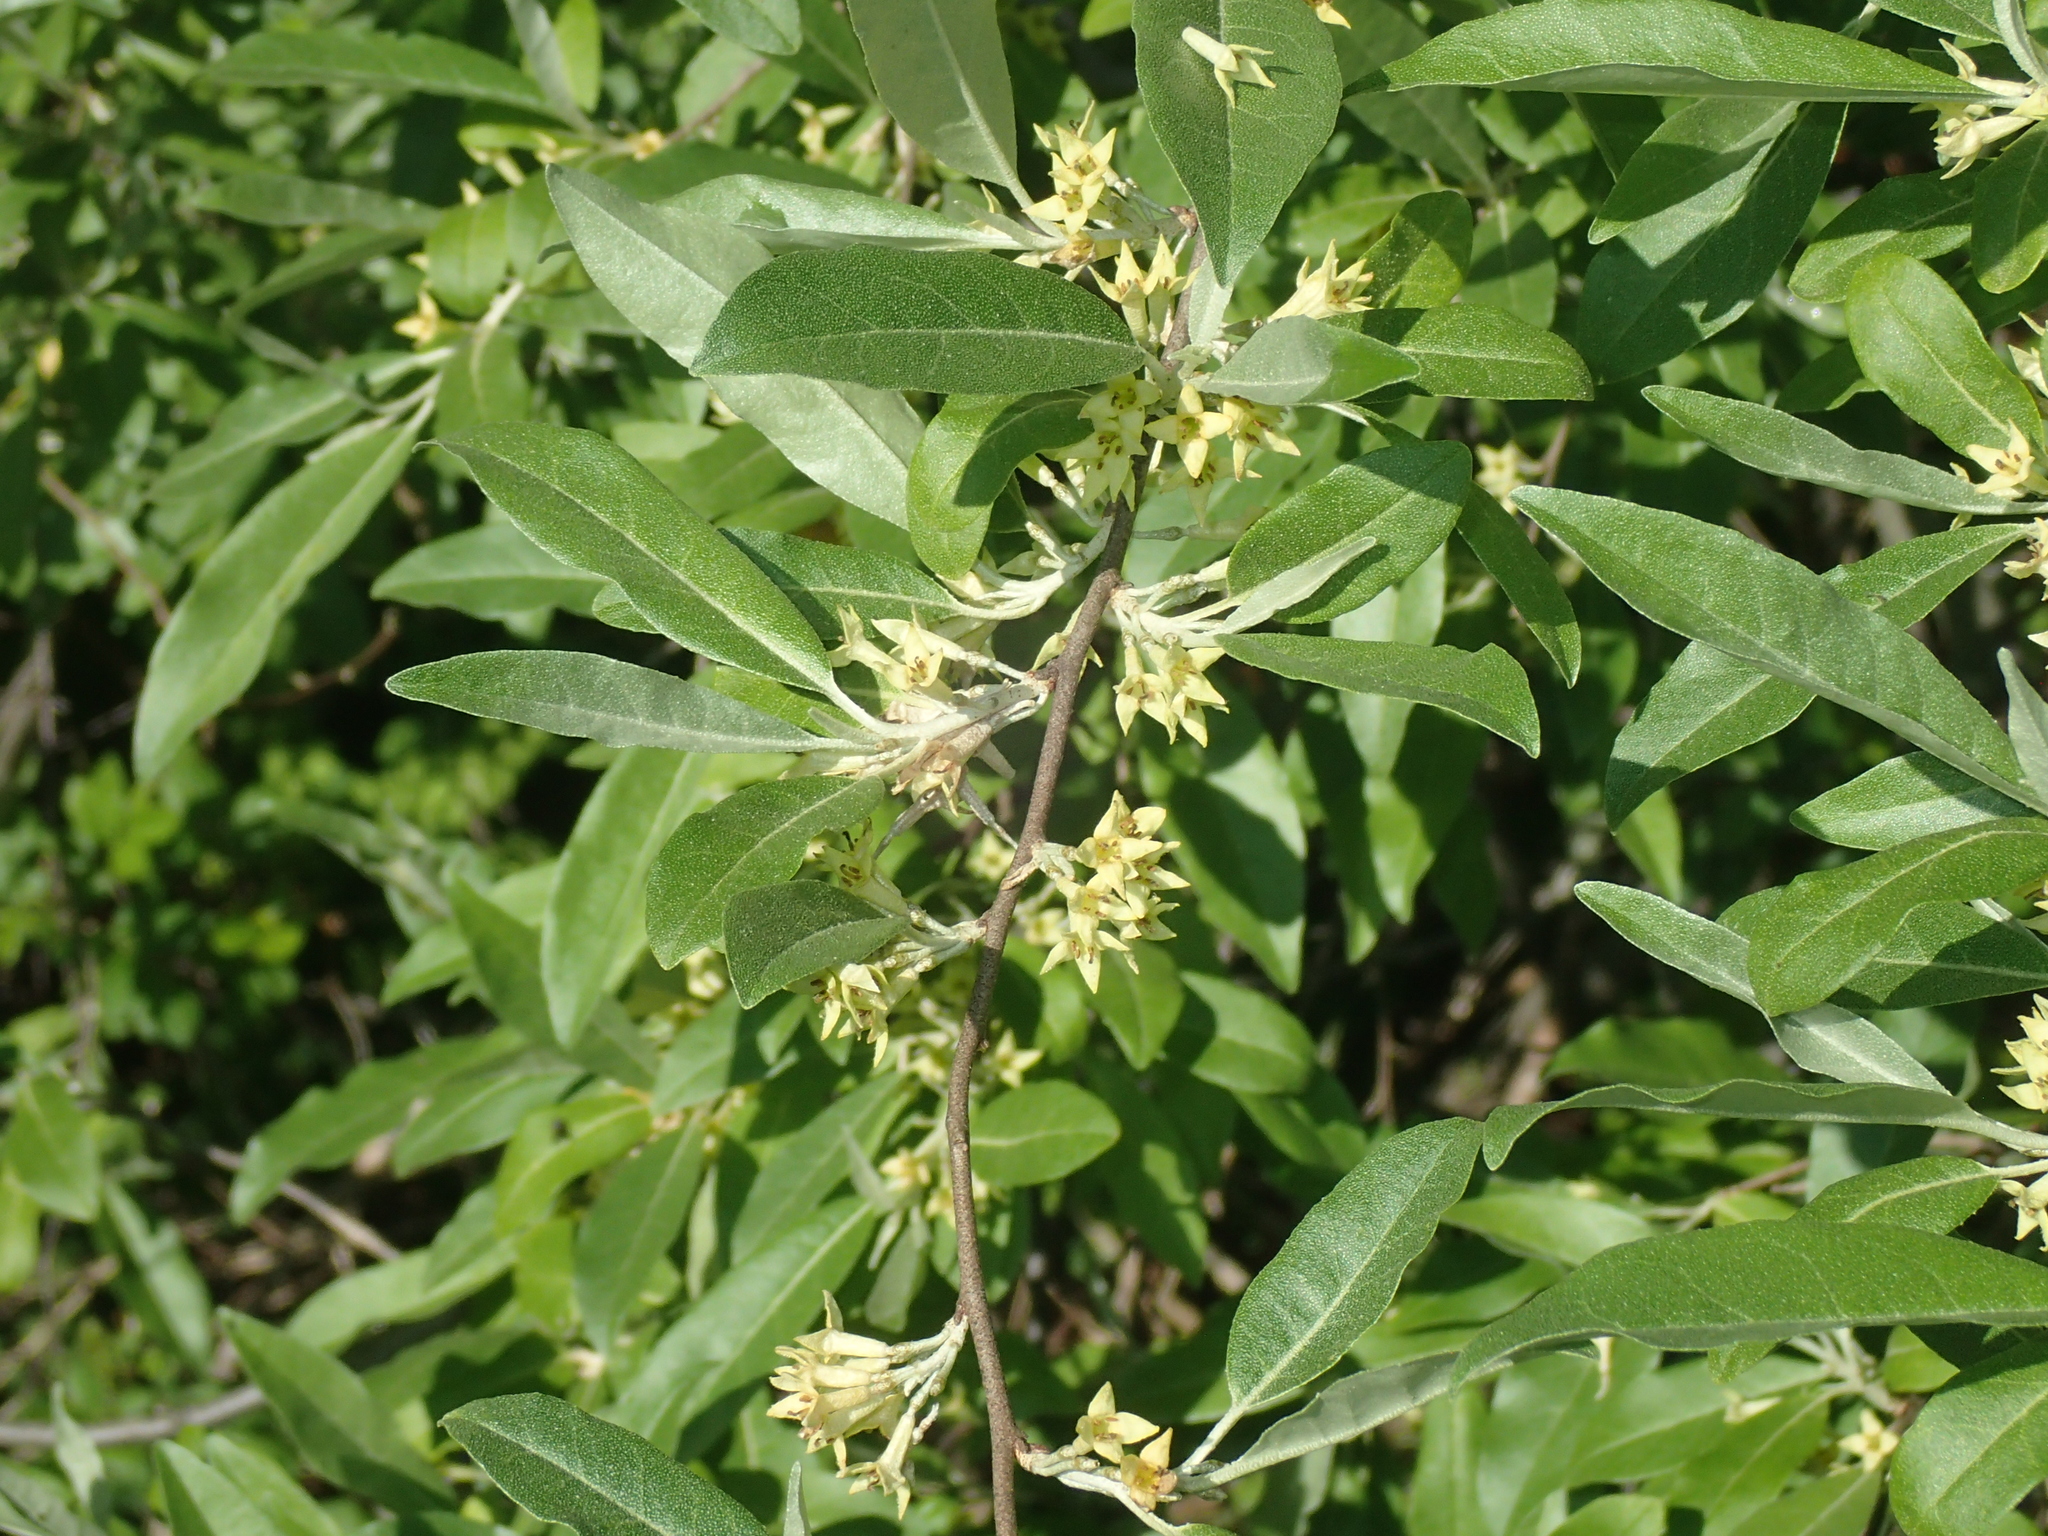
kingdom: Plantae
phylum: Tracheophyta
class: Magnoliopsida
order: Rosales
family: Elaeagnaceae
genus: Elaeagnus
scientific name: Elaeagnus umbellata
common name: Autumn olive
